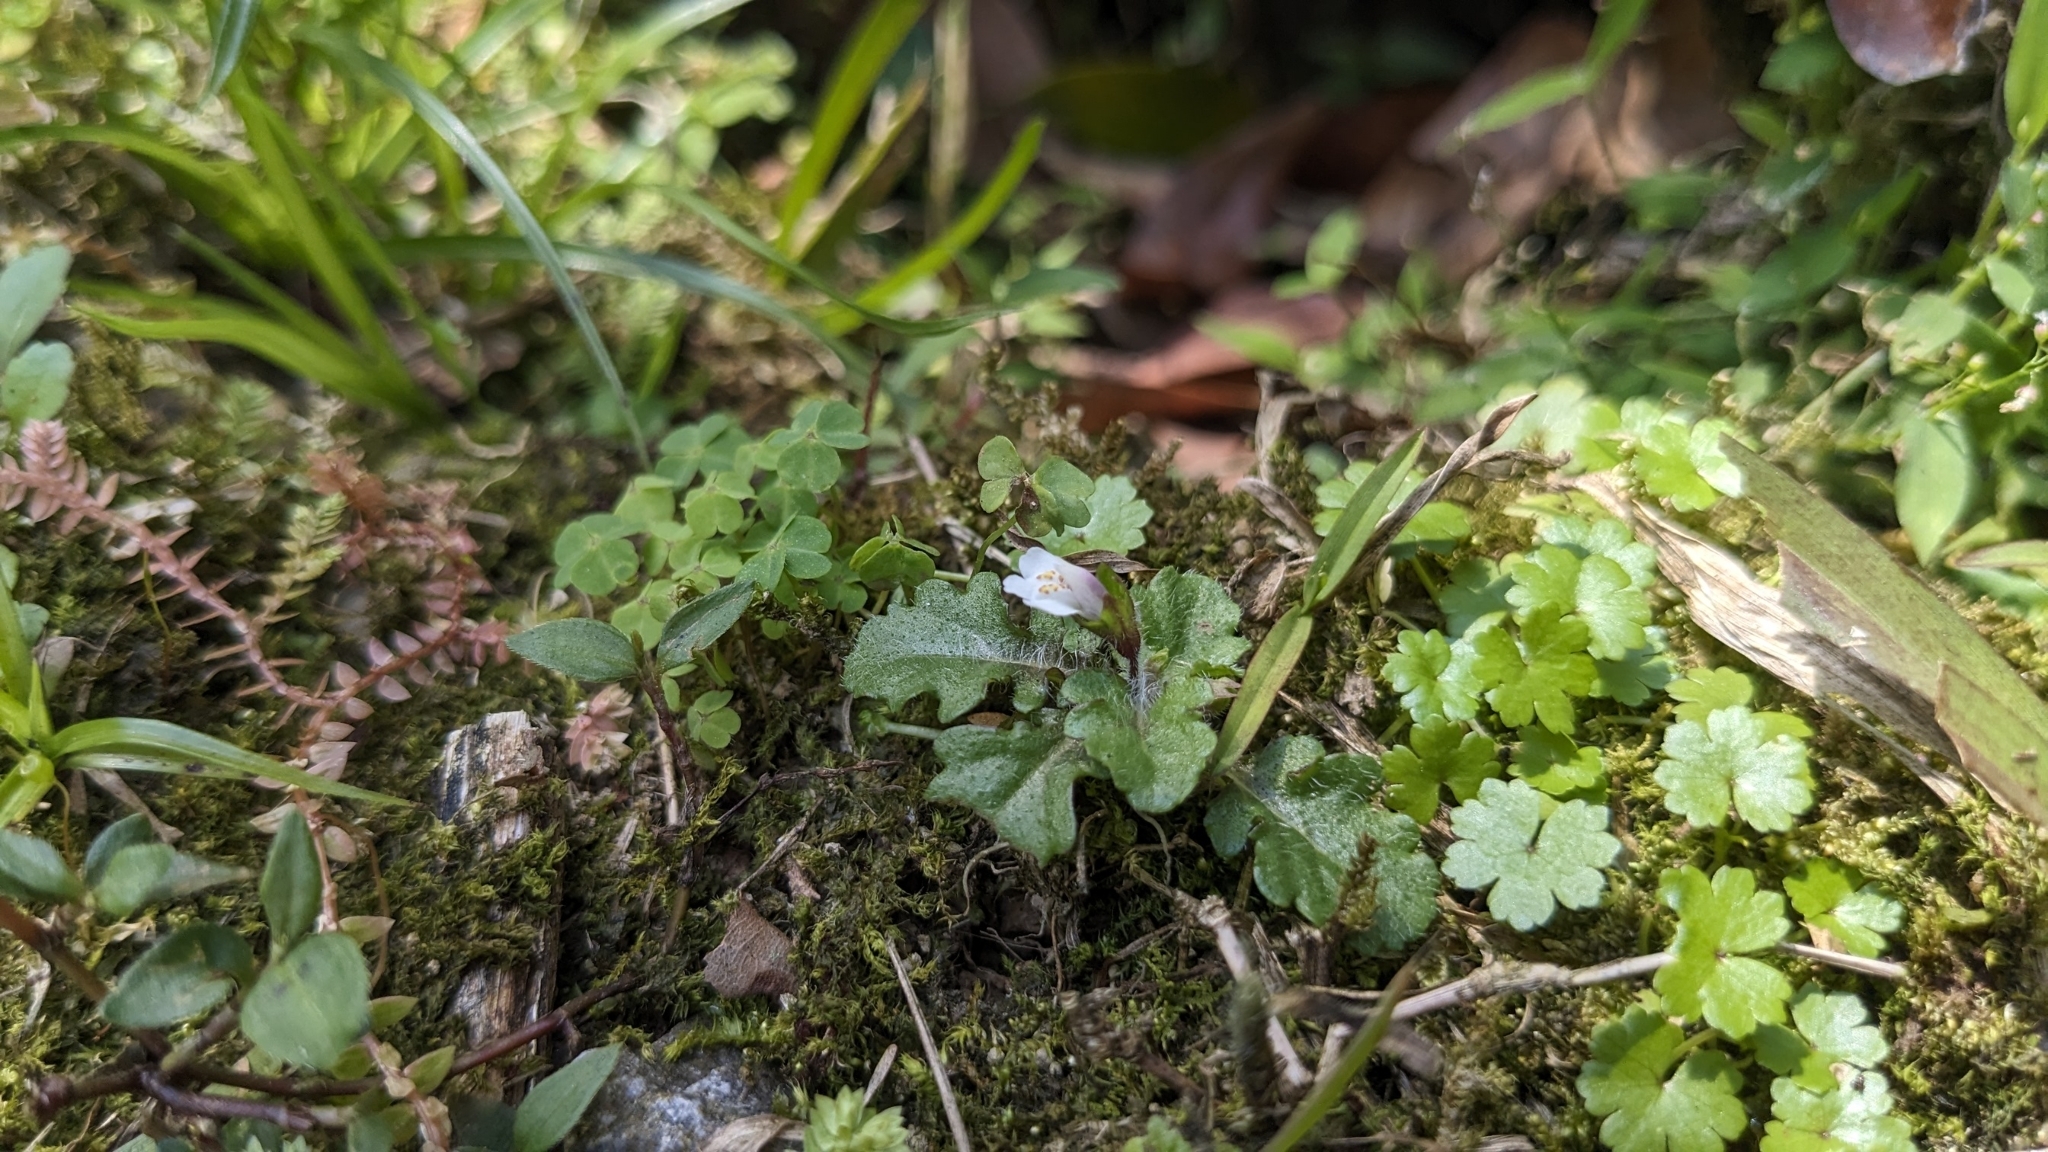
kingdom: Plantae
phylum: Tracheophyta
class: Magnoliopsida
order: Lamiales
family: Mazaceae
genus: Mazus
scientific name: Mazus goodeniifolius
